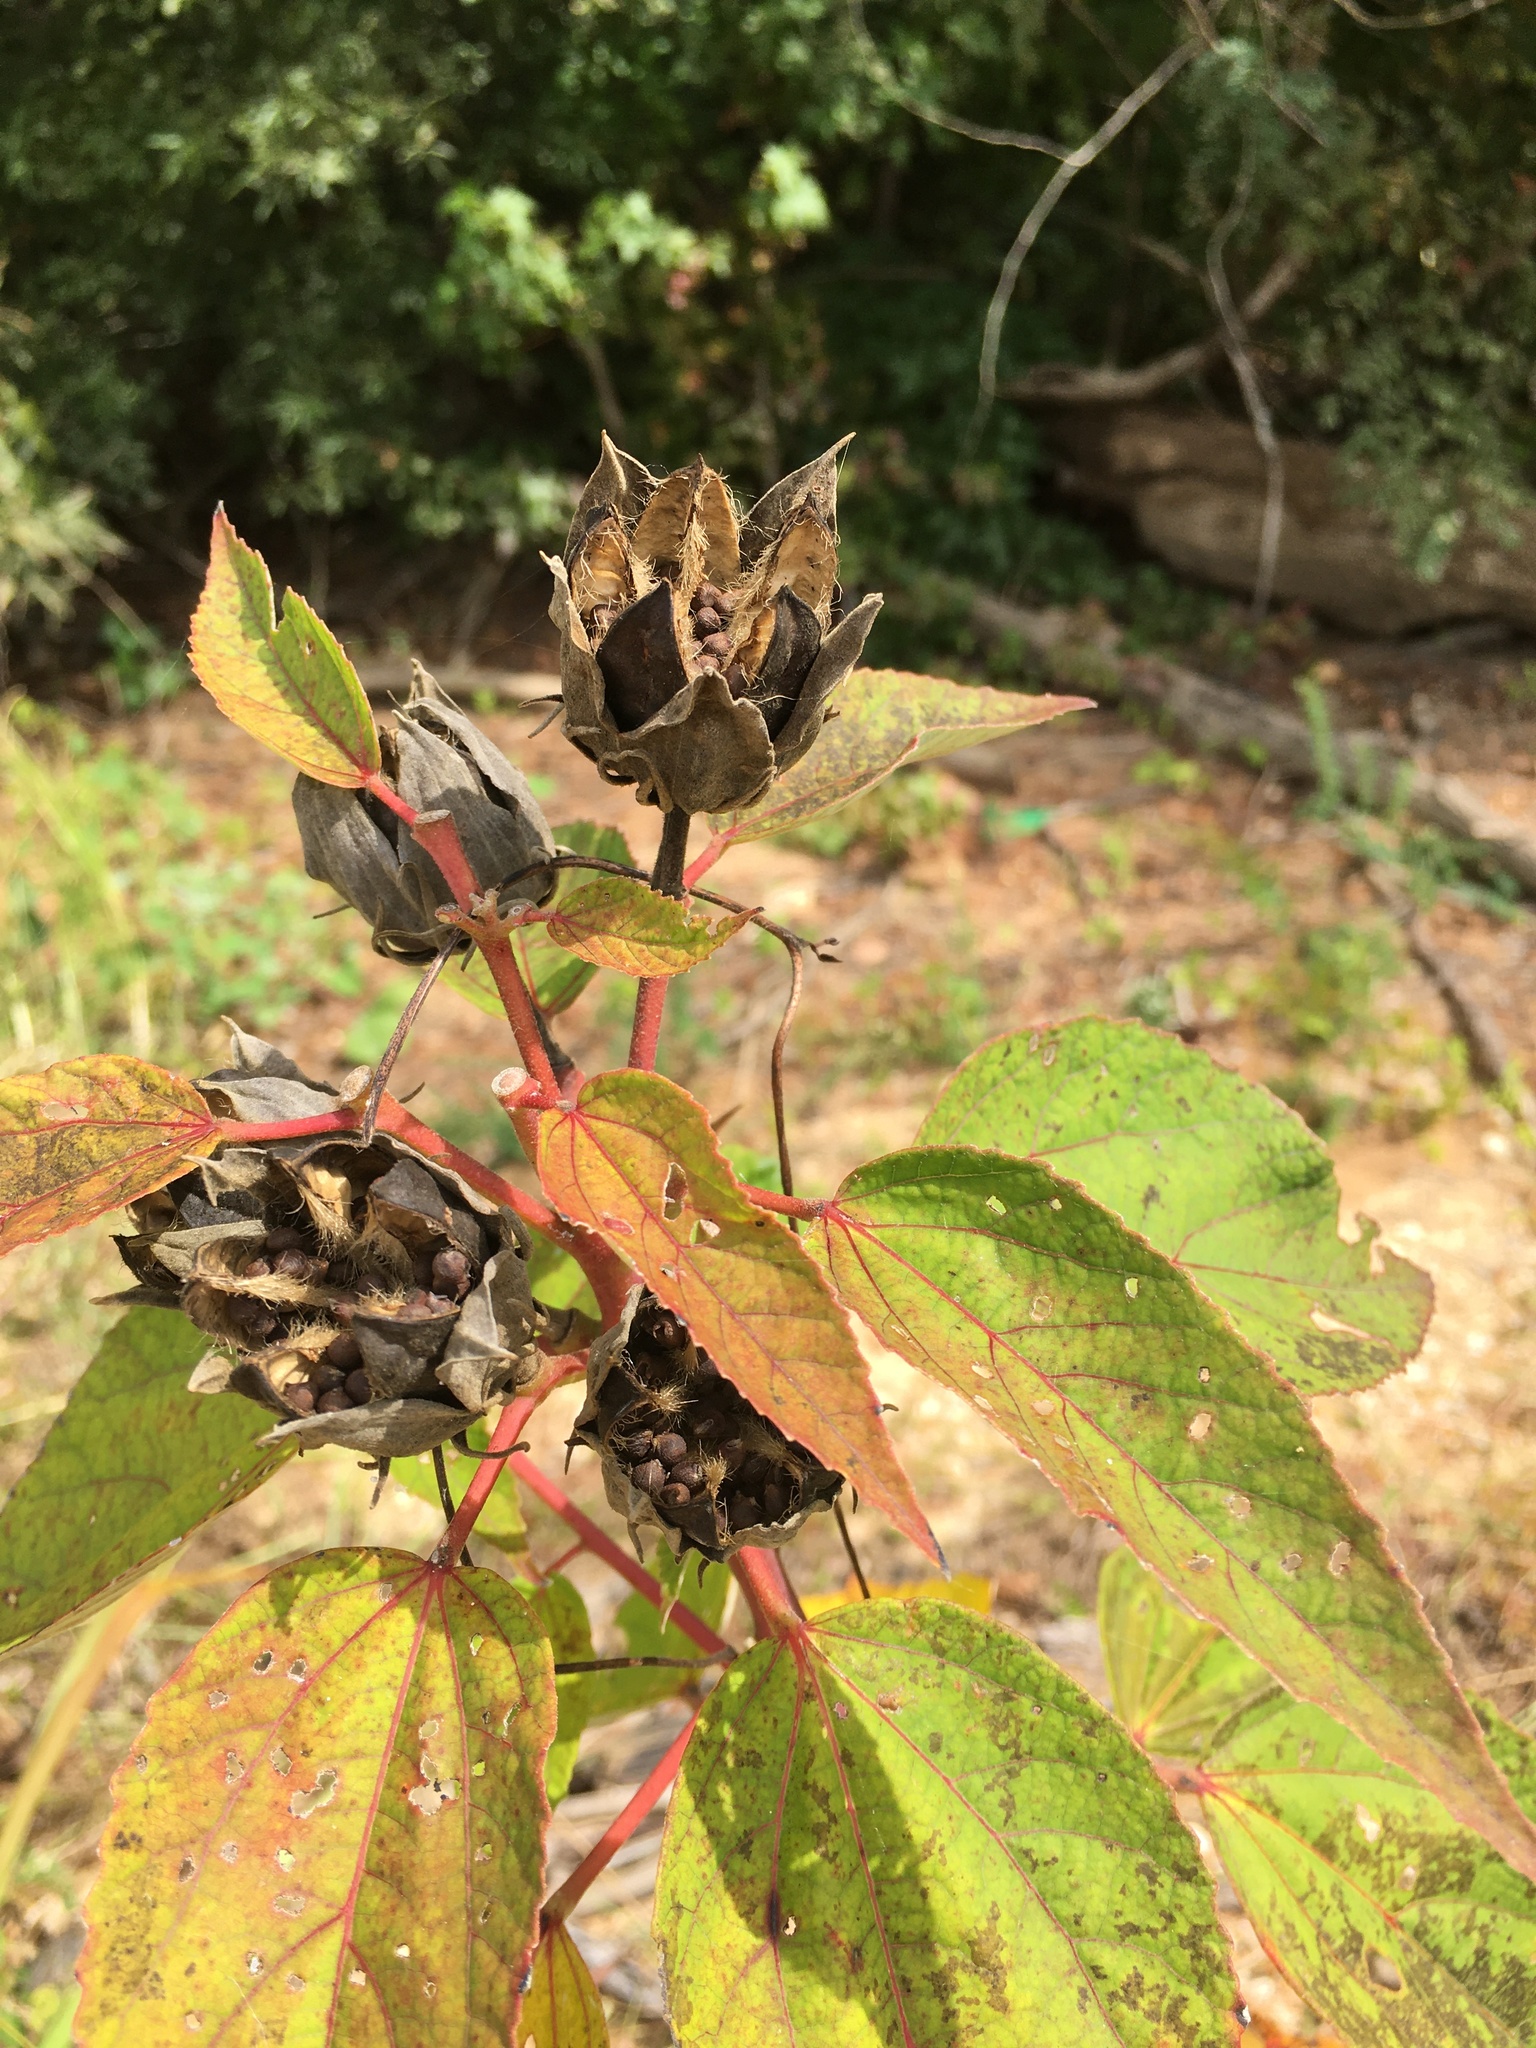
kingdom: Plantae
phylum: Tracheophyta
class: Magnoliopsida
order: Malvales
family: Malvaceae
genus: Hibiscus
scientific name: Hibiscus moscheutos
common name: Common rose-mallow
